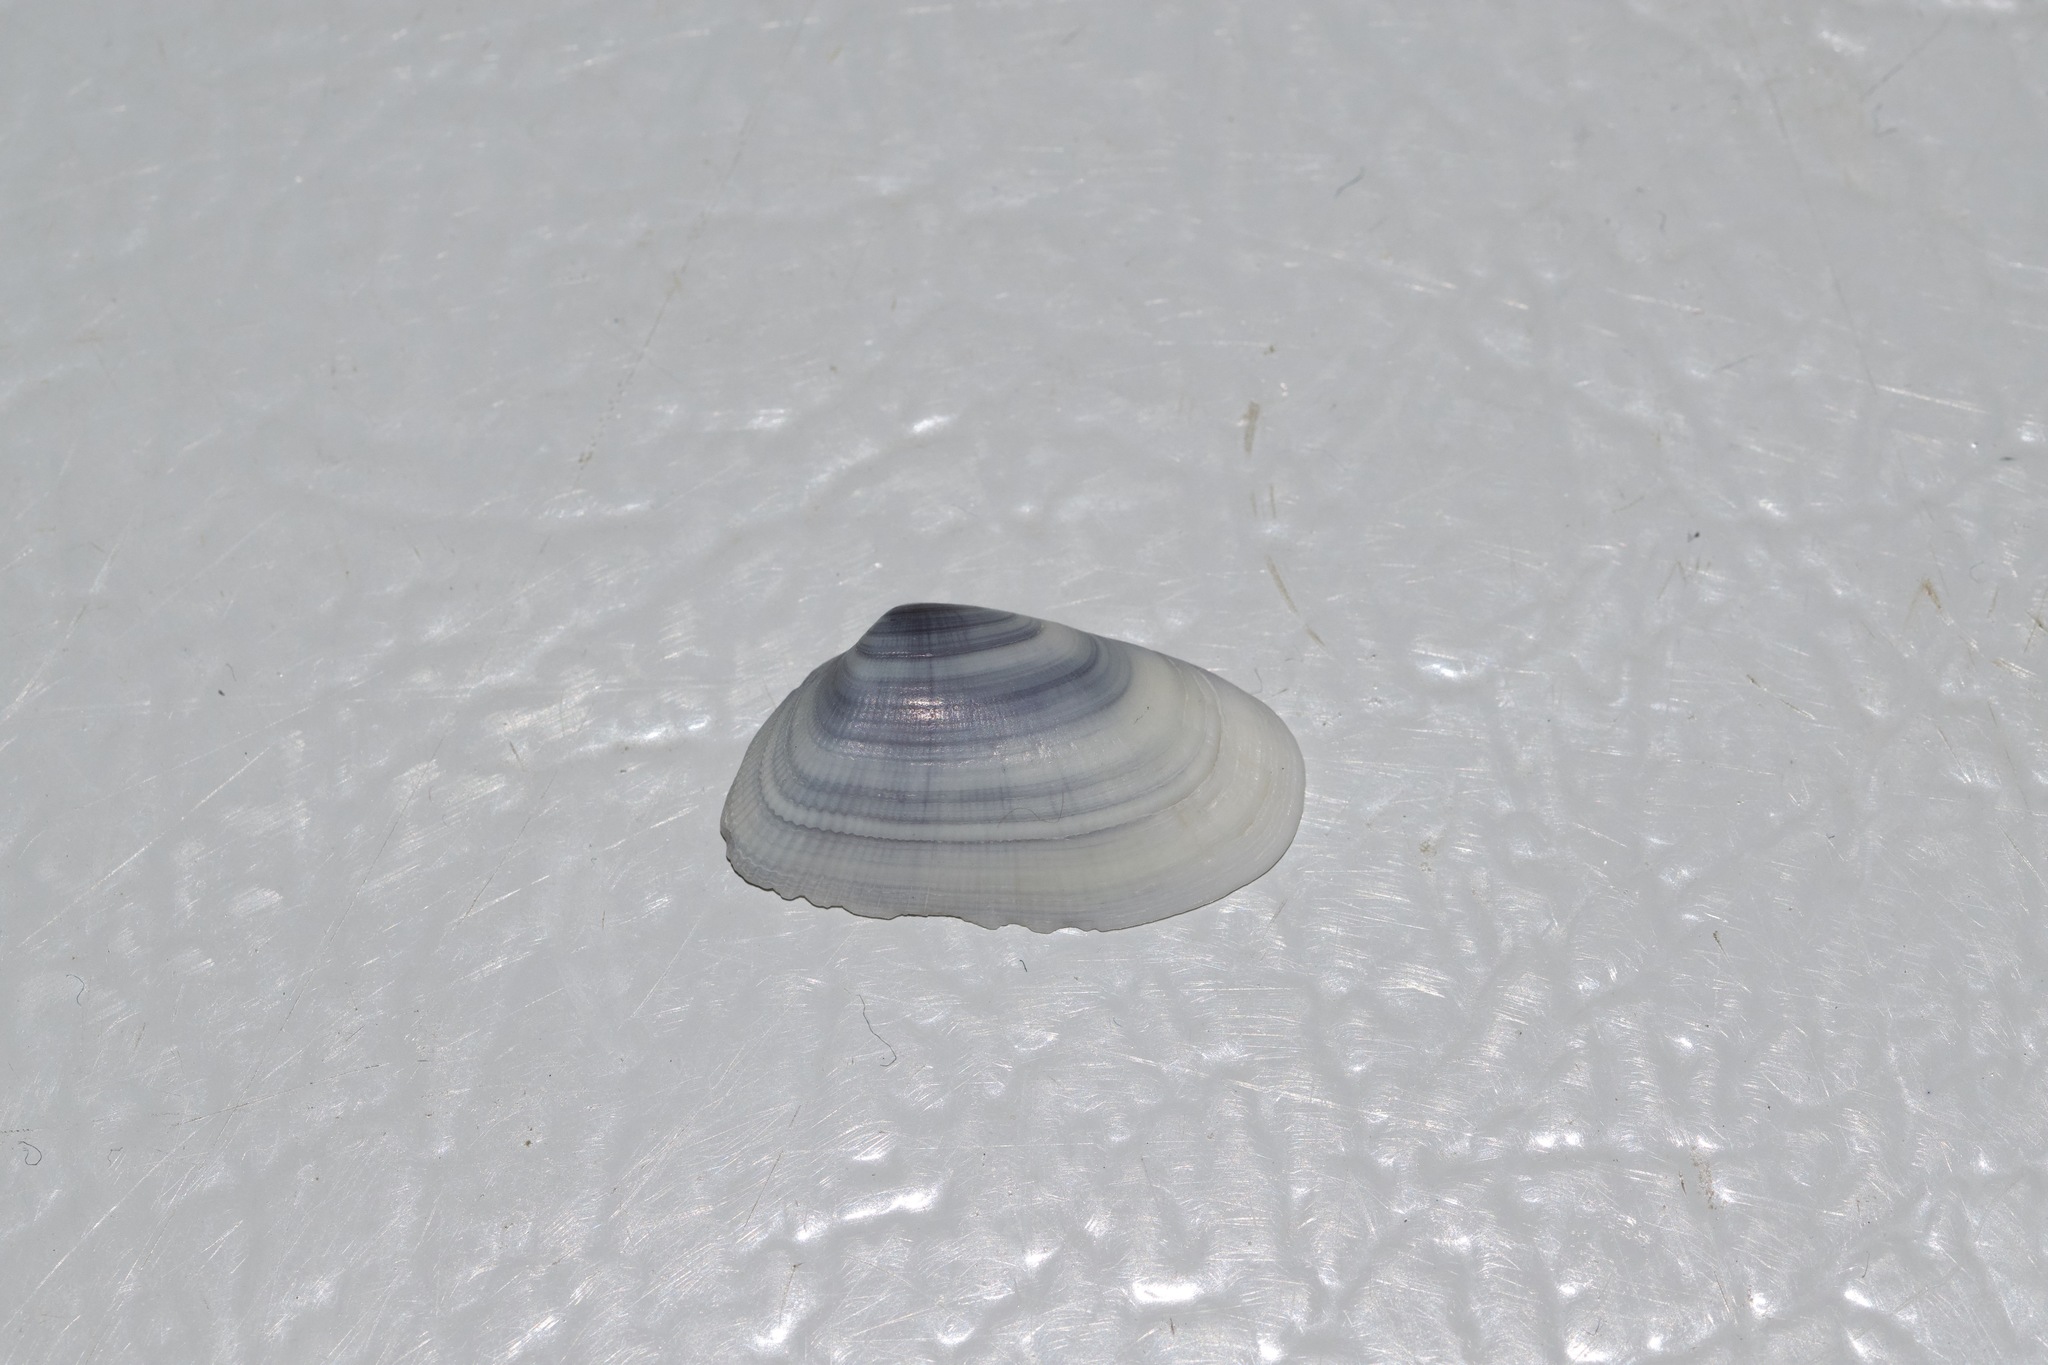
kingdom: Animalia
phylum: Mollusca
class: Bivalvia
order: Cardiida
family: Donacidae
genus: Donax
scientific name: Donax variabilis
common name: Butterfly shell
